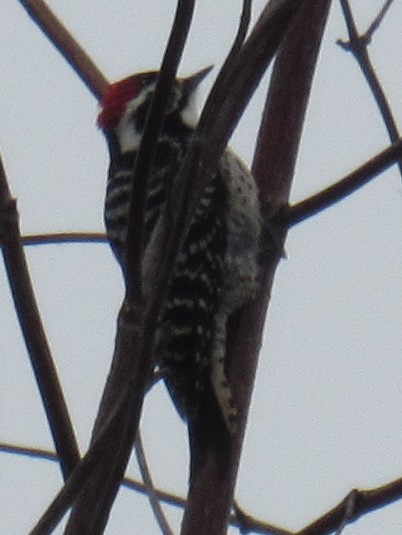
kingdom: Animalia
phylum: Chordata
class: Aves
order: Piciformes
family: Picidae
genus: Dryobates
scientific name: Dryobates nuttallii
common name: Nuttall's woodpecker
